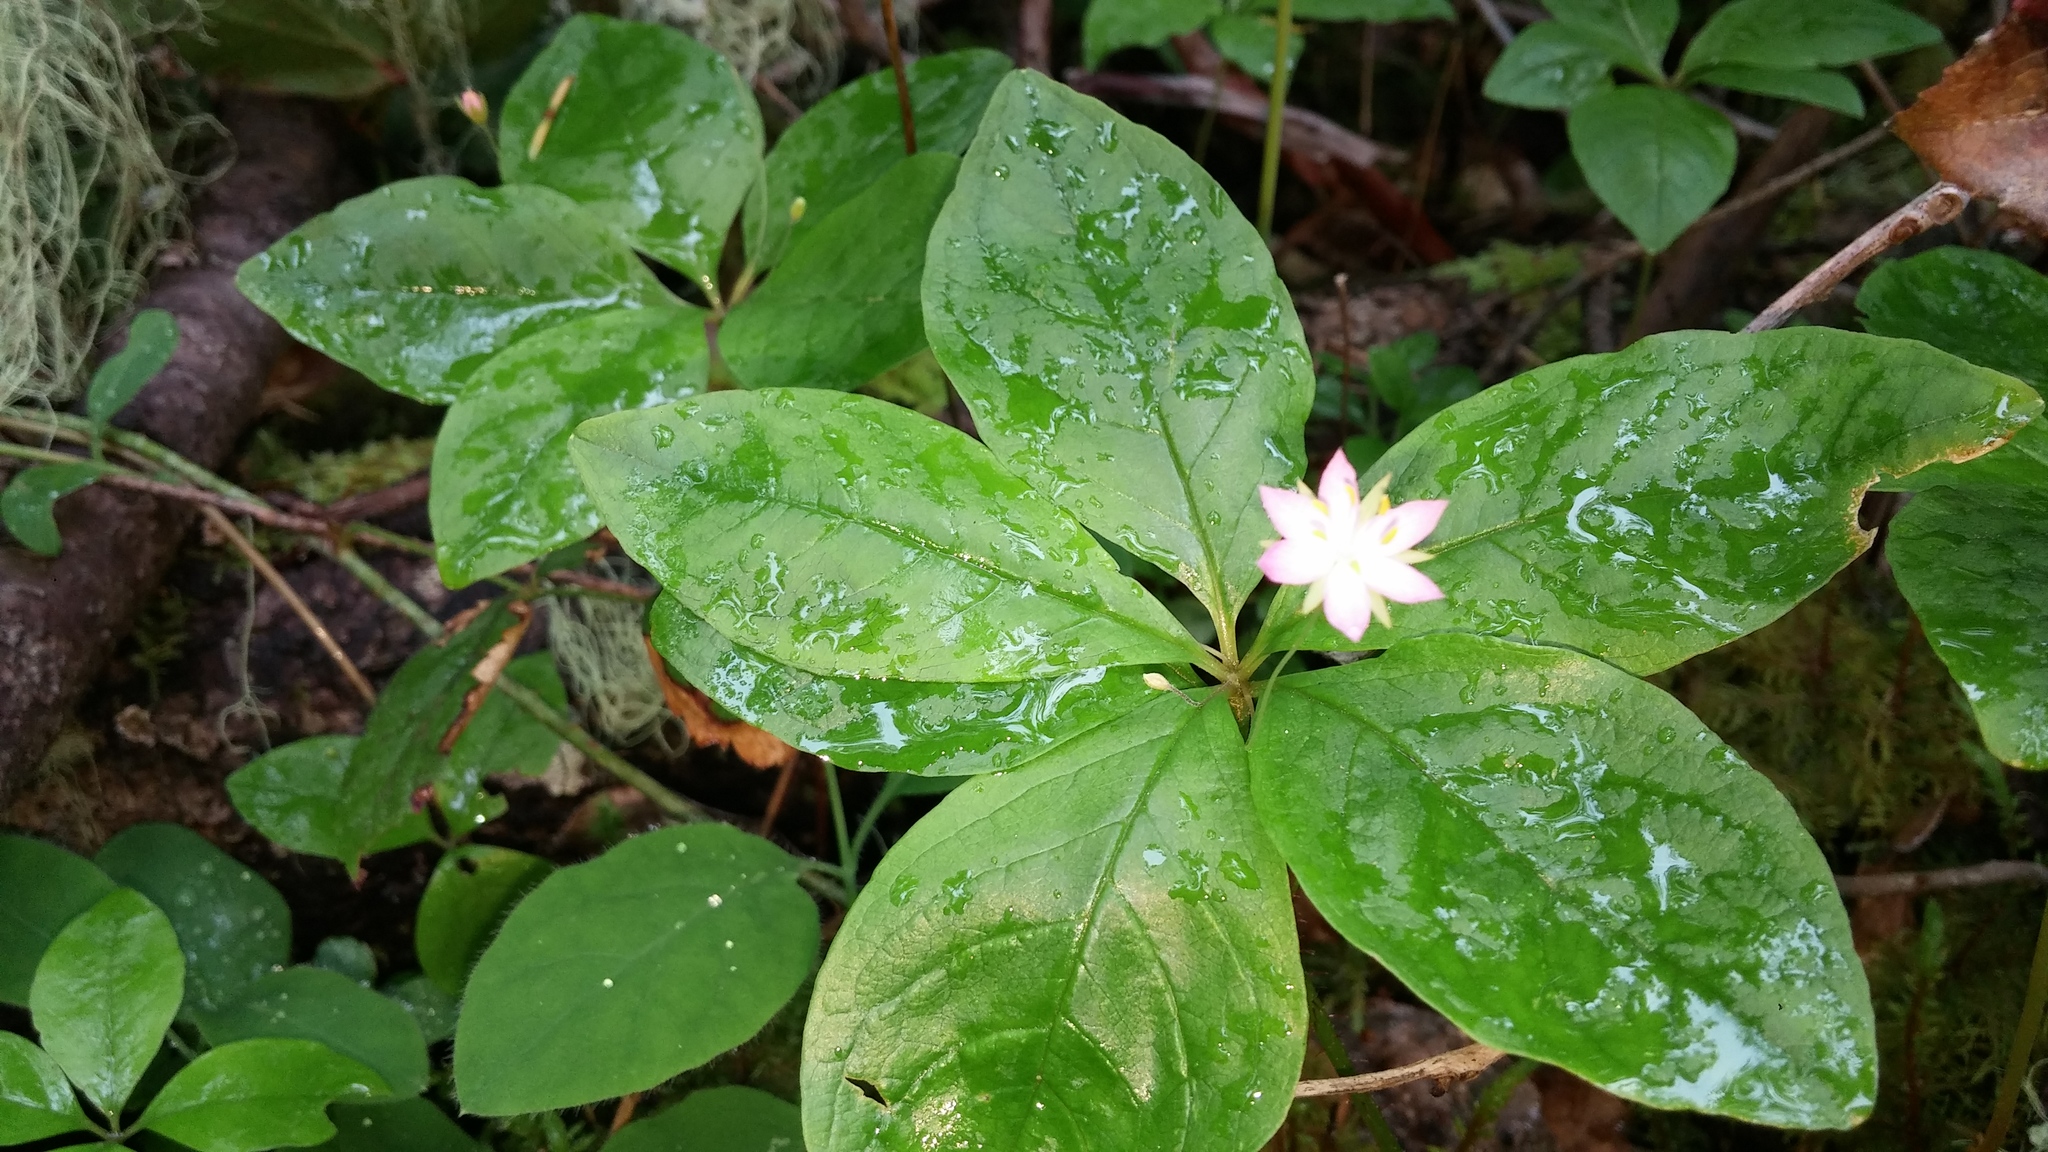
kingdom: Plantae
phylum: Tracheophyta
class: Magnoliopsida
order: Ericales
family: Primulaceae
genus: Lysimachia
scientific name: Lysimachia latifolia
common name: Pacific starflower
